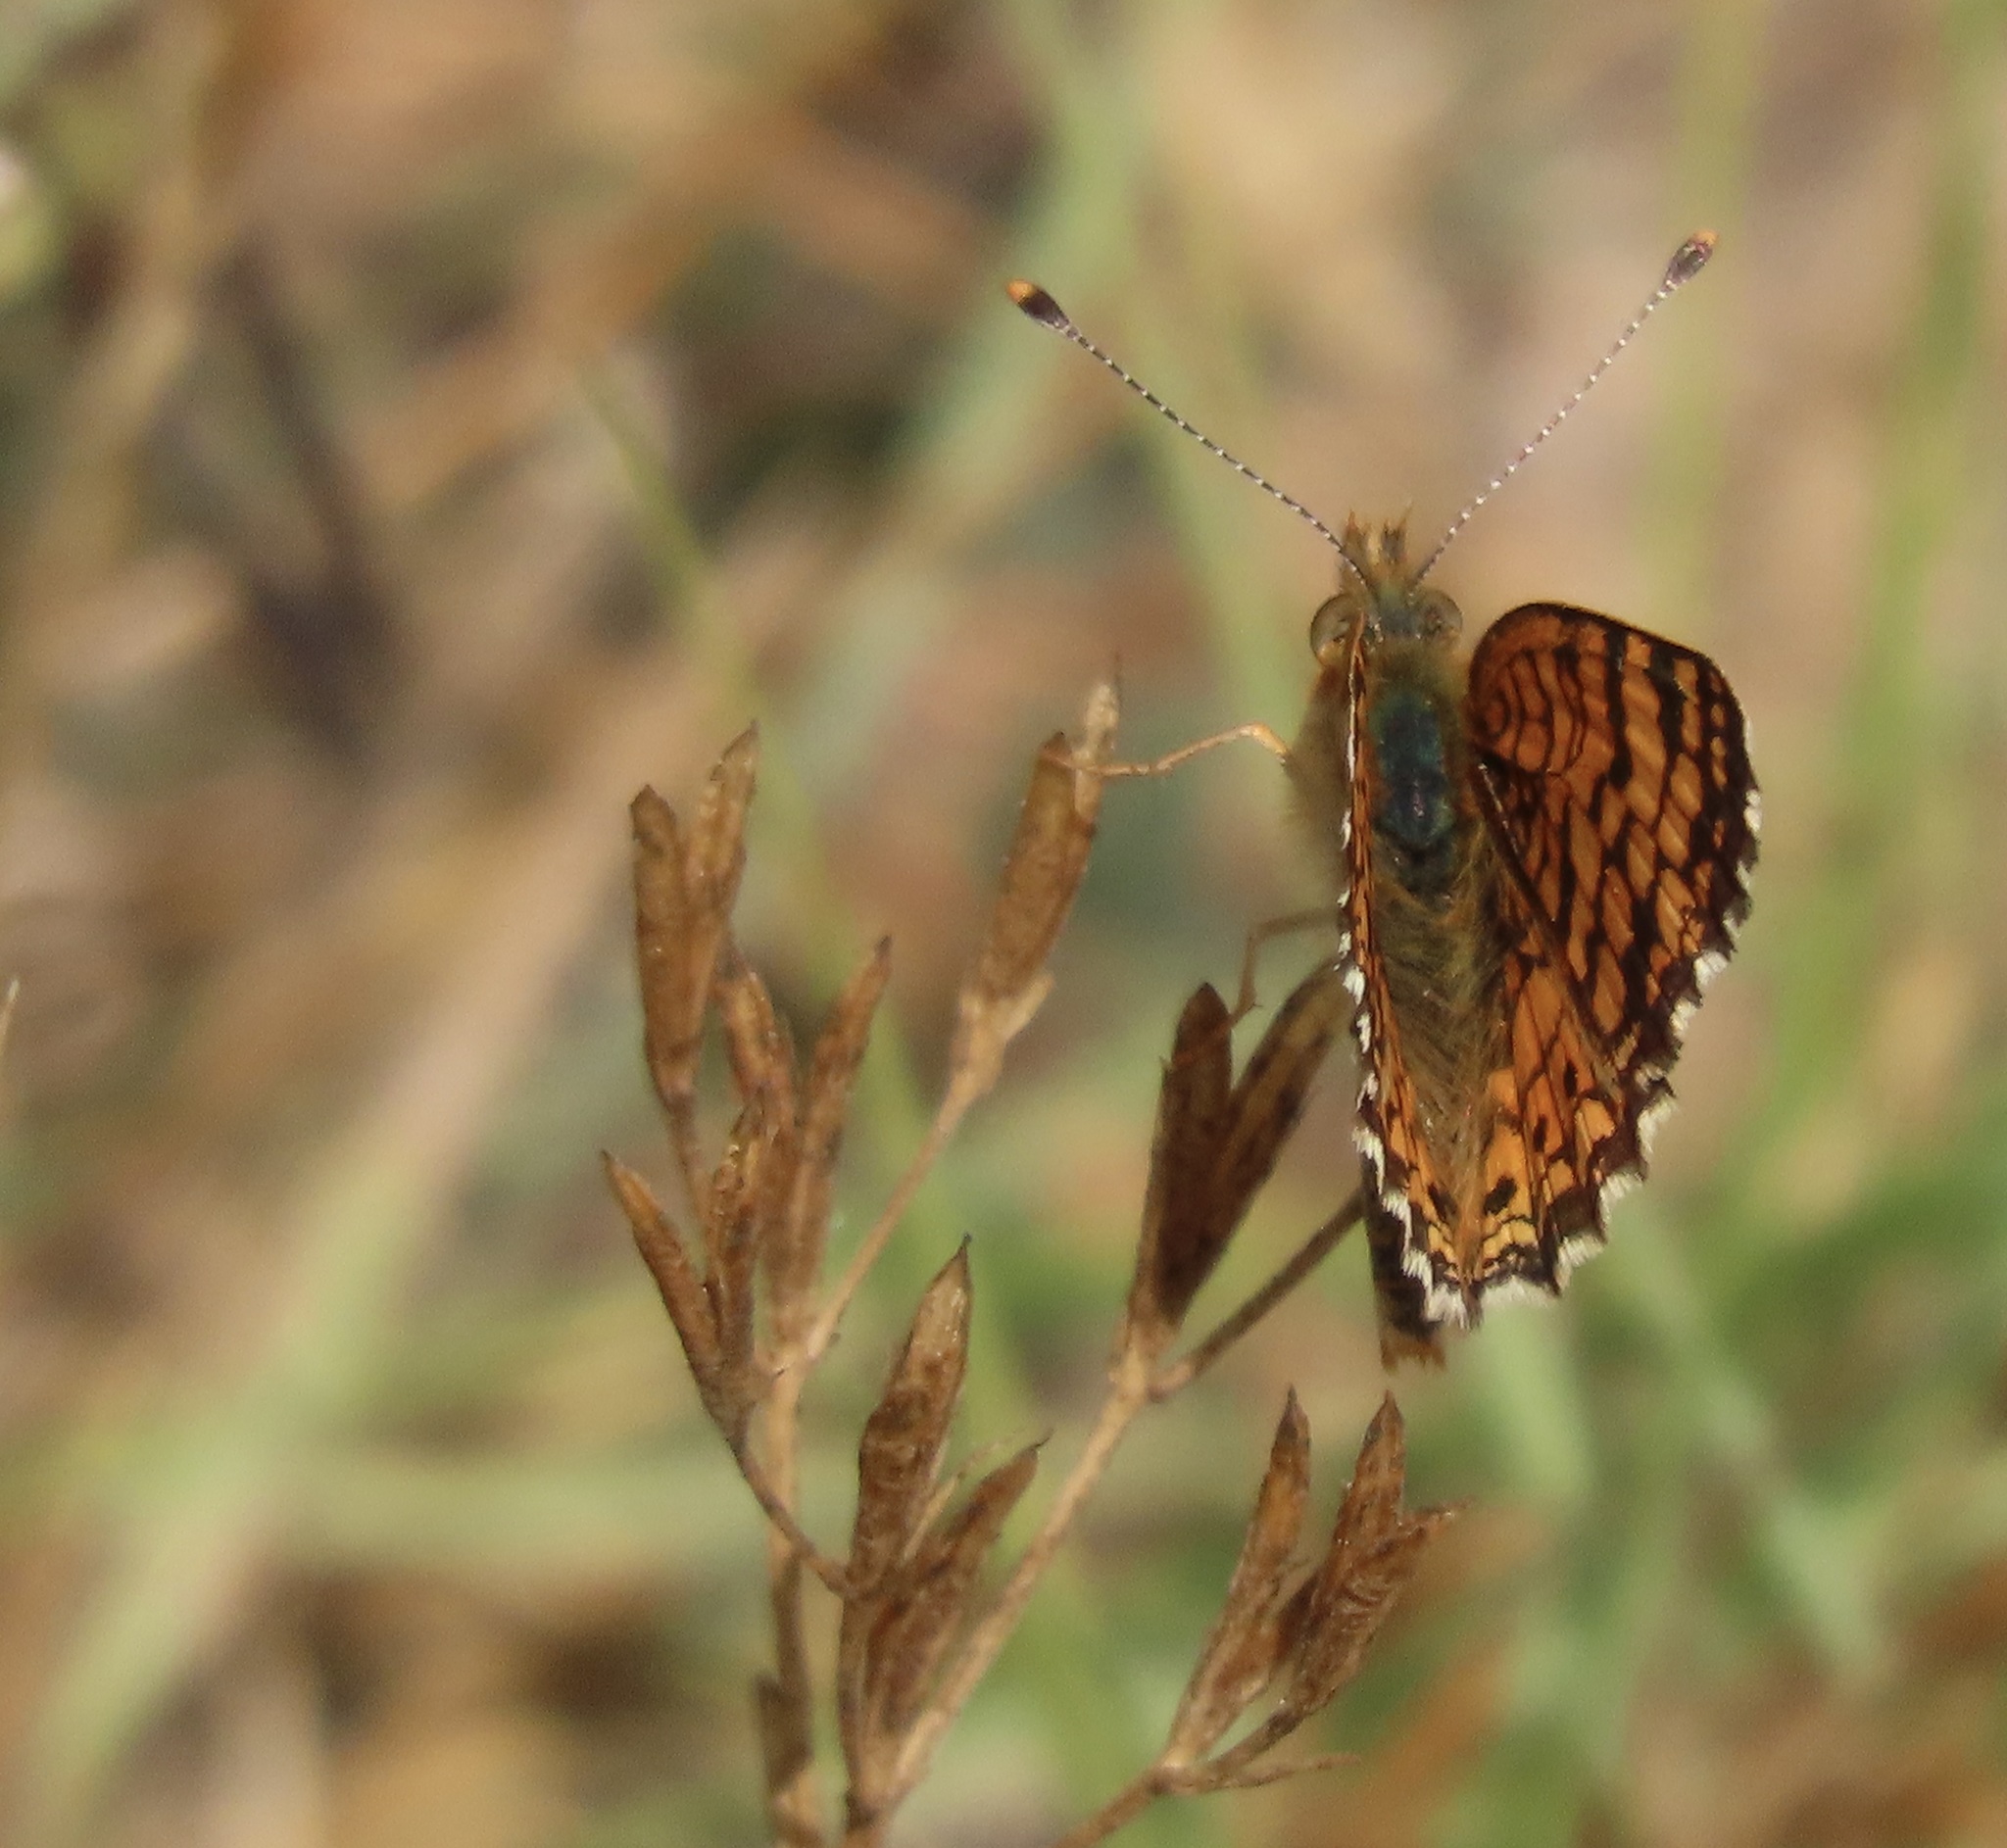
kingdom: Animalia
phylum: Arthropoda
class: Insecta
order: Lepidoptera
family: Nymphalidae
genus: Eresia
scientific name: Eresia aveyrona
